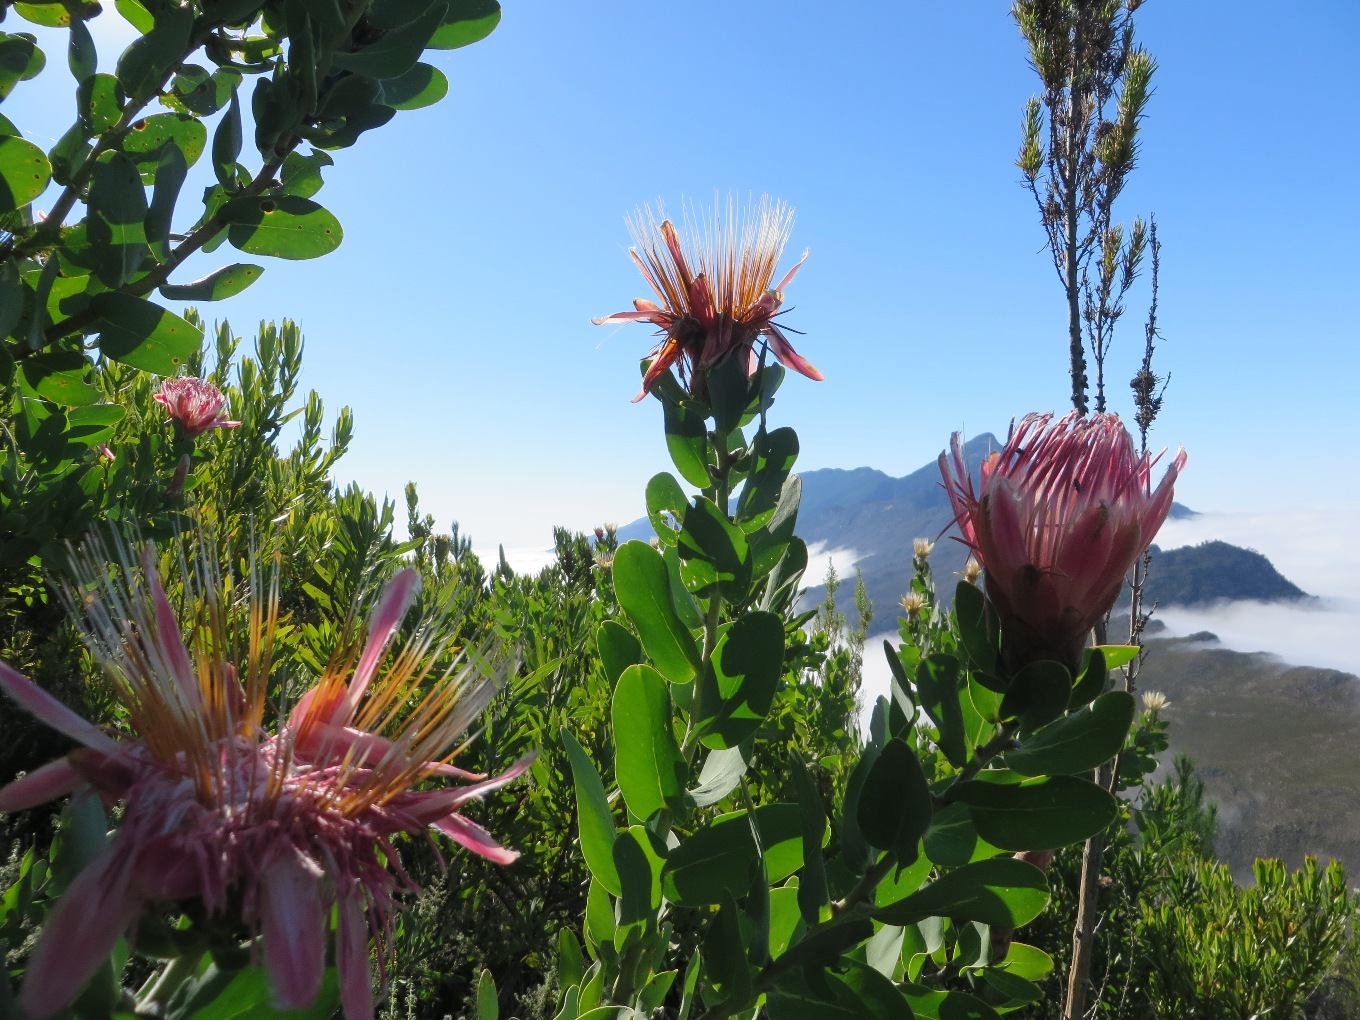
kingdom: Plantae
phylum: Tracheophyta
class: Magnoliopsida
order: Proteales
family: Proteaceae
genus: Protea
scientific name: Protea aurea
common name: Shuttlecock sugarbush
